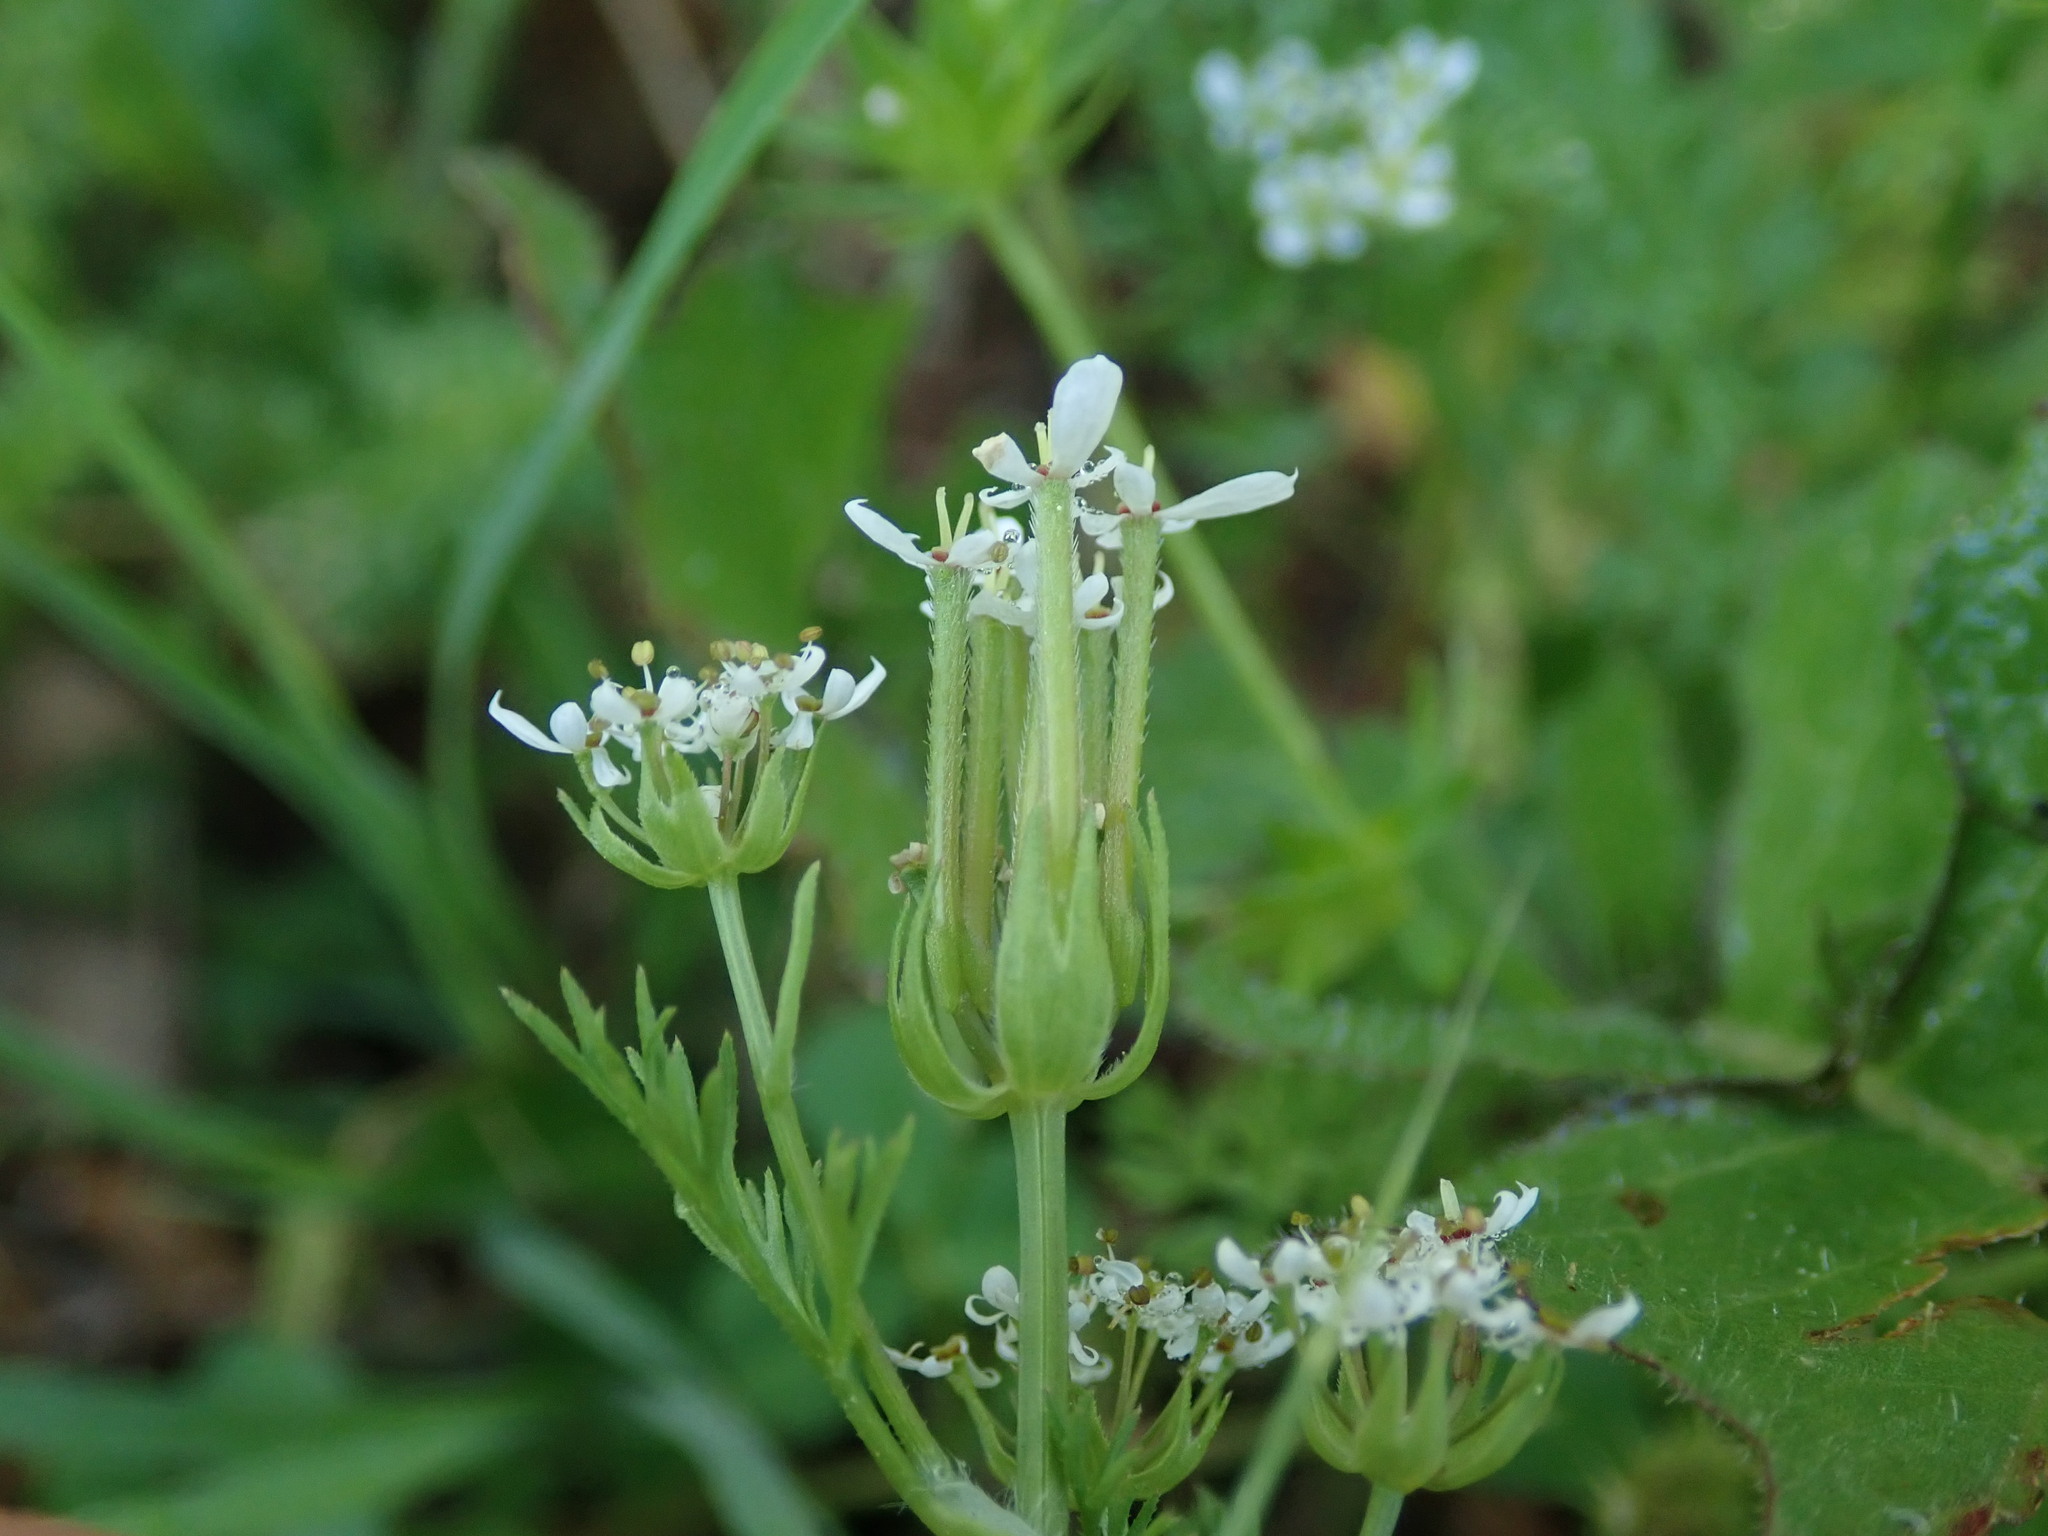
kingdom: Plantae
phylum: Tracheophyta
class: Magnoliopsida
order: Apiales
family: Apiaceae
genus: Scandix
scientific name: Scandix pecten-veneris
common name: Shepherd's-needle
